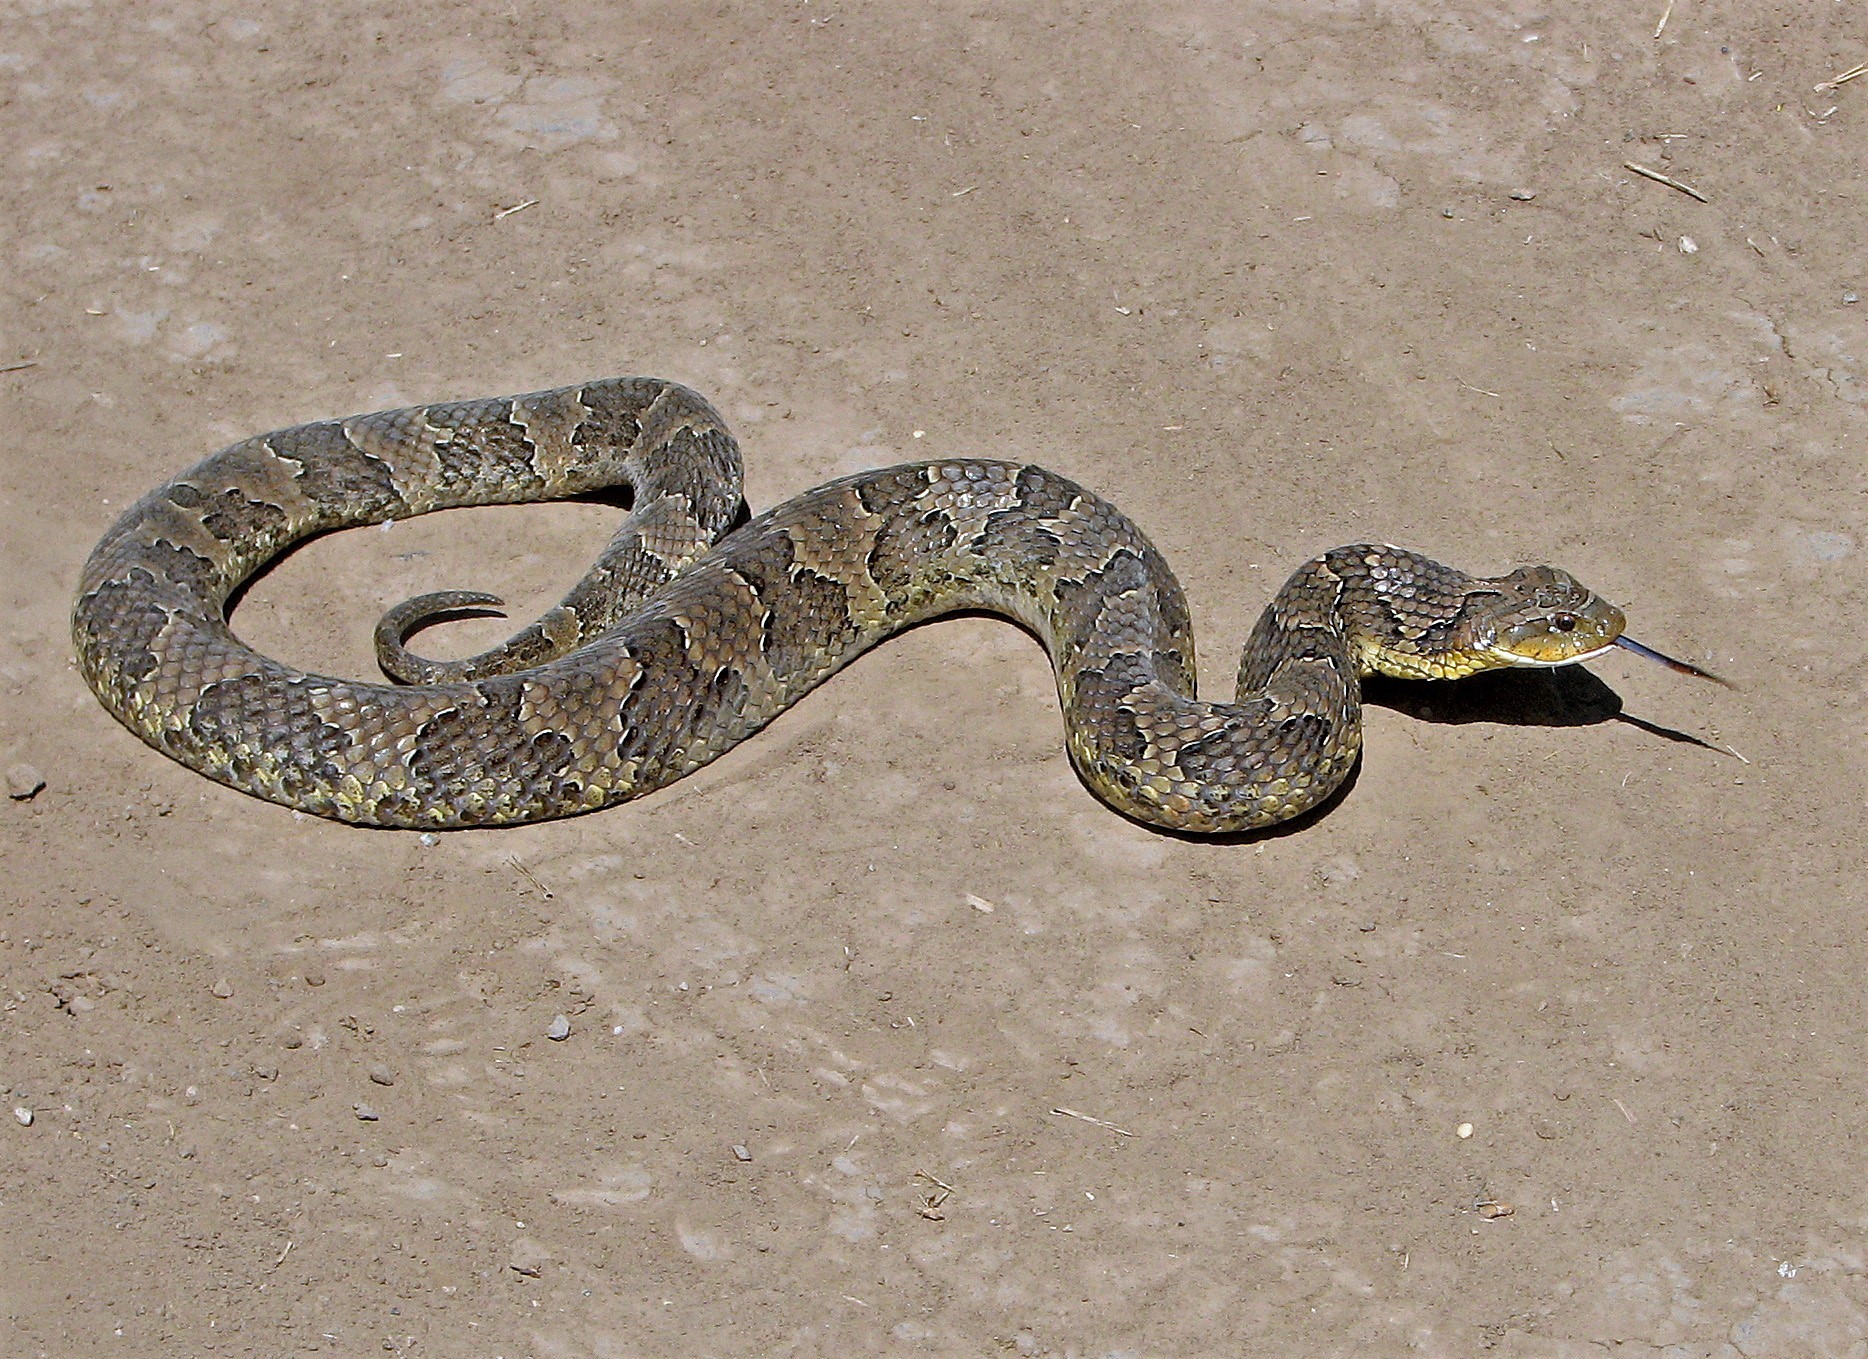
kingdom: Animalia
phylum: Chordata
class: Squamata
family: Colubridae
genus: Xenodon
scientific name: Xenodon merremii
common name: Wagler's snake
